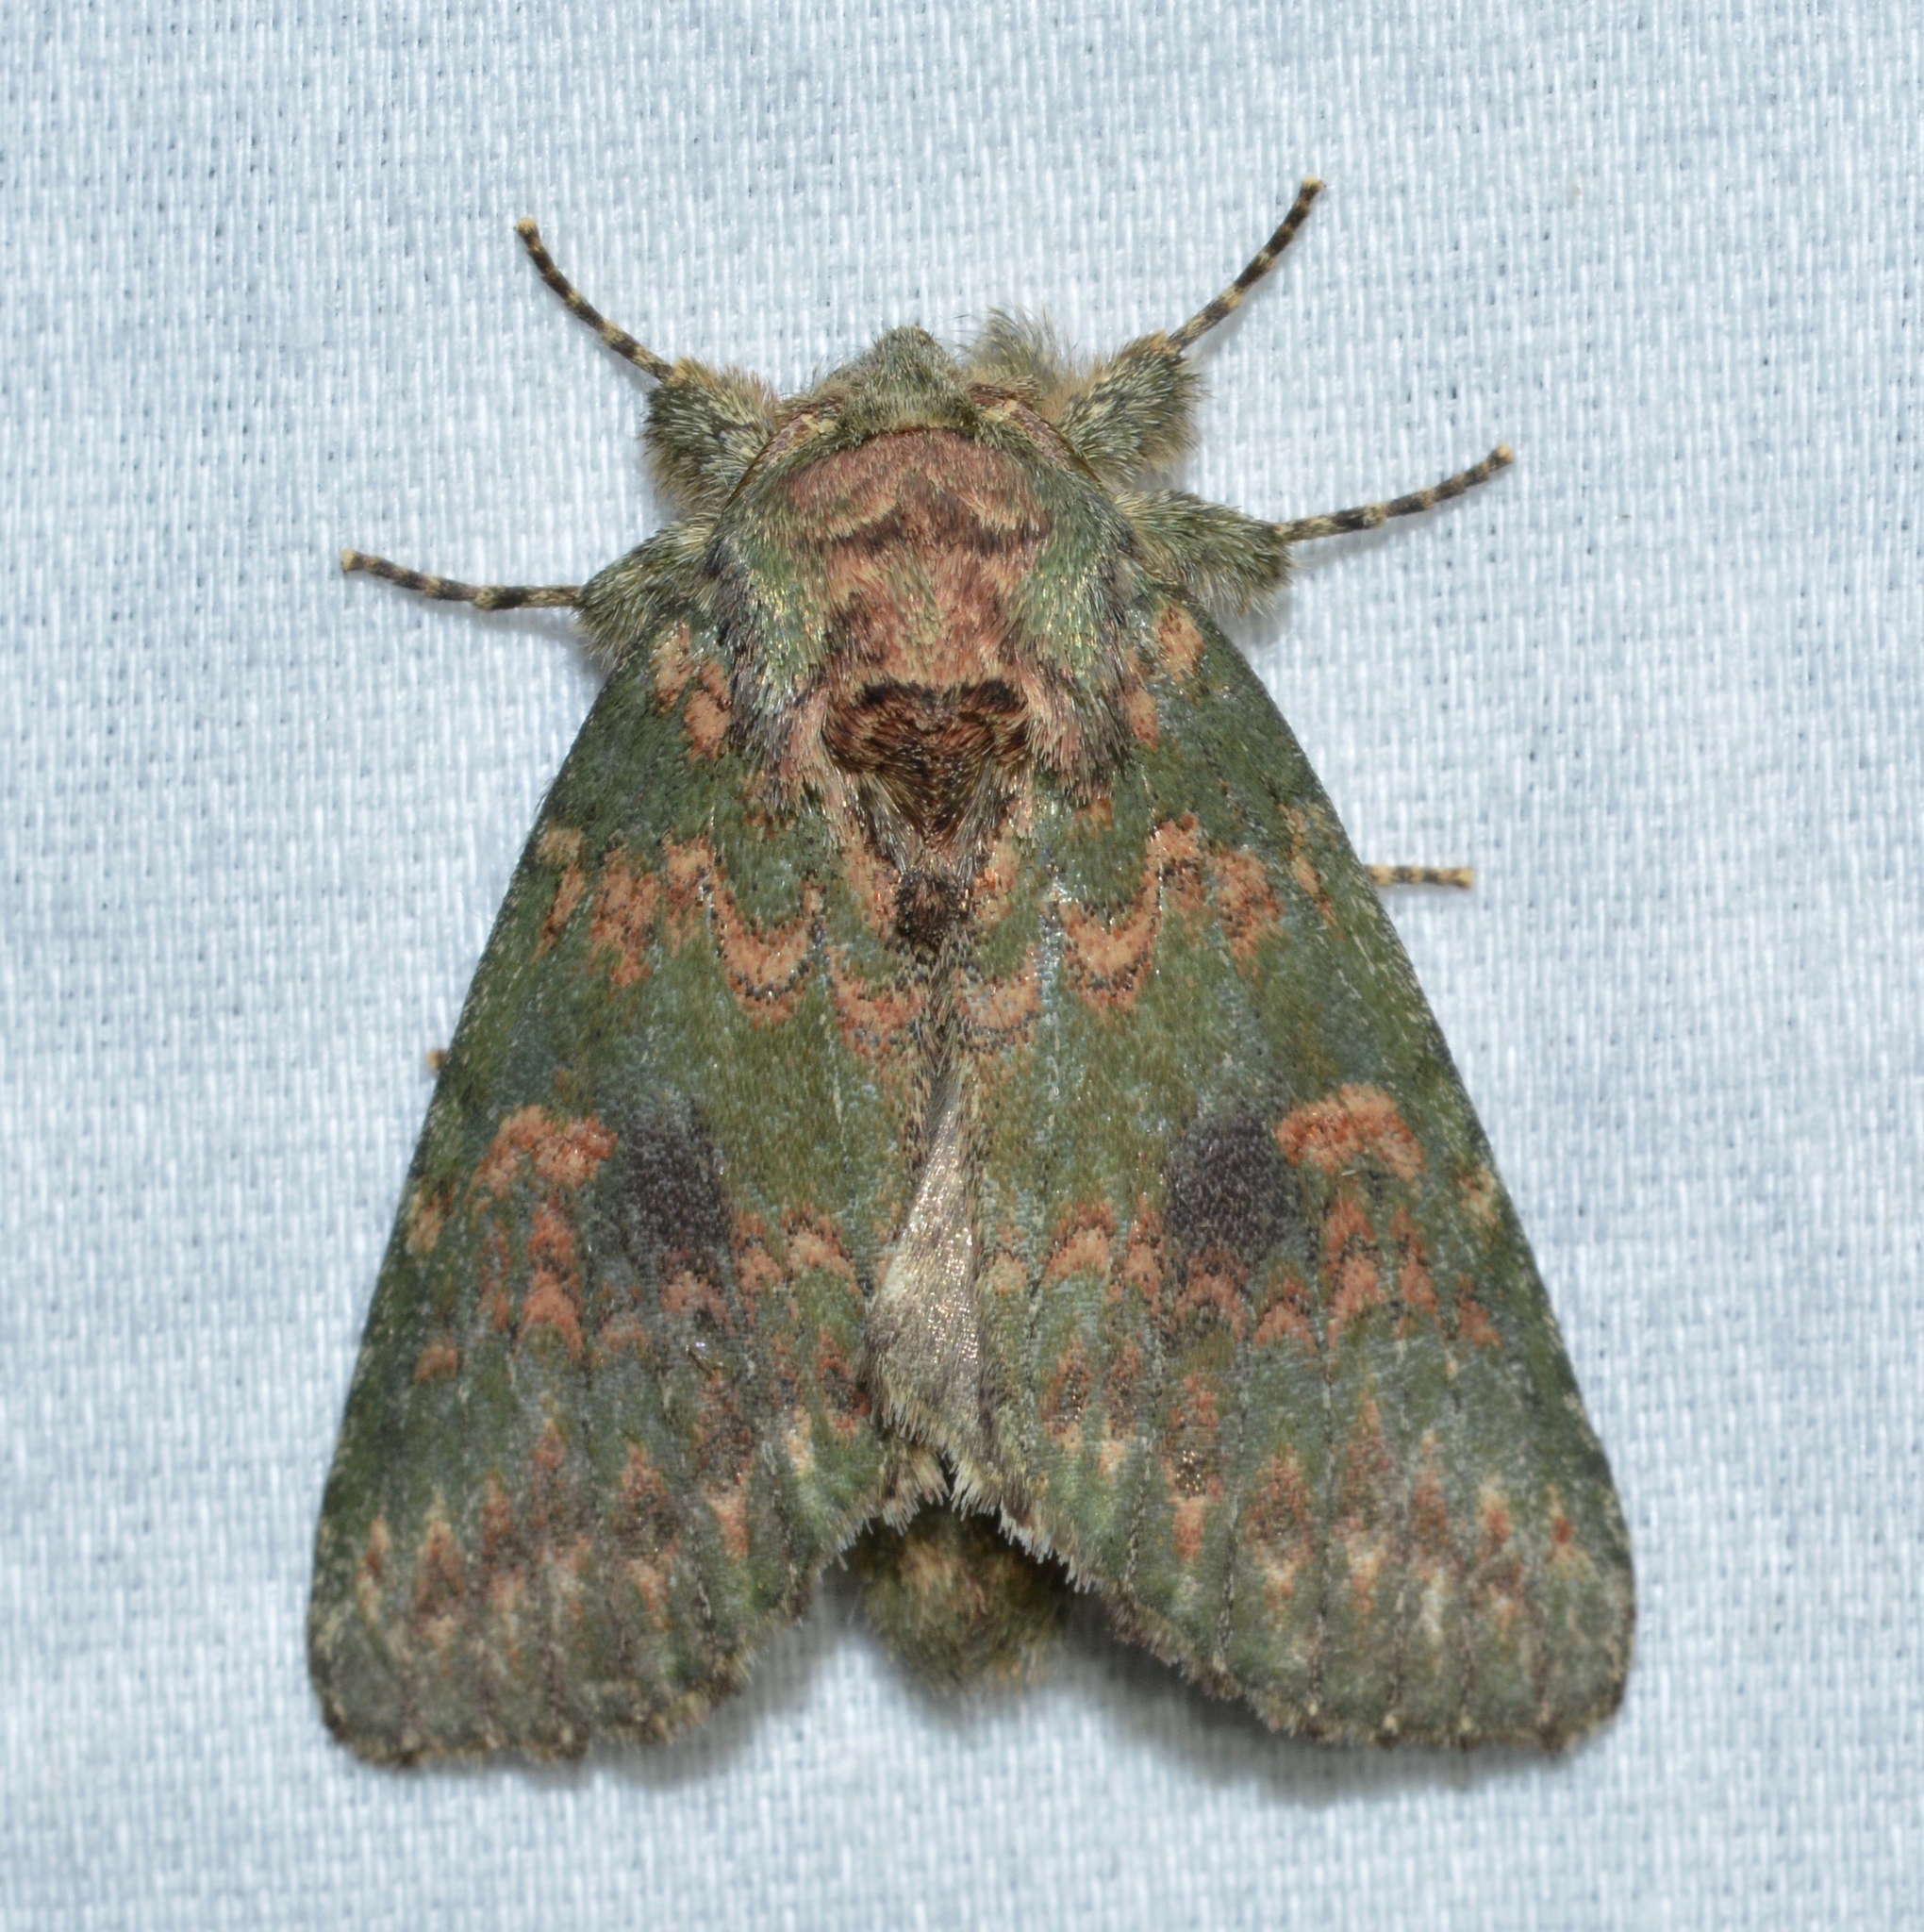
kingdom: Animalia
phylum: Arthropoda
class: Insecta
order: Lepidoptera
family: Notodontidae
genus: Disphragis
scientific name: Disphragis Cecrita biundata
